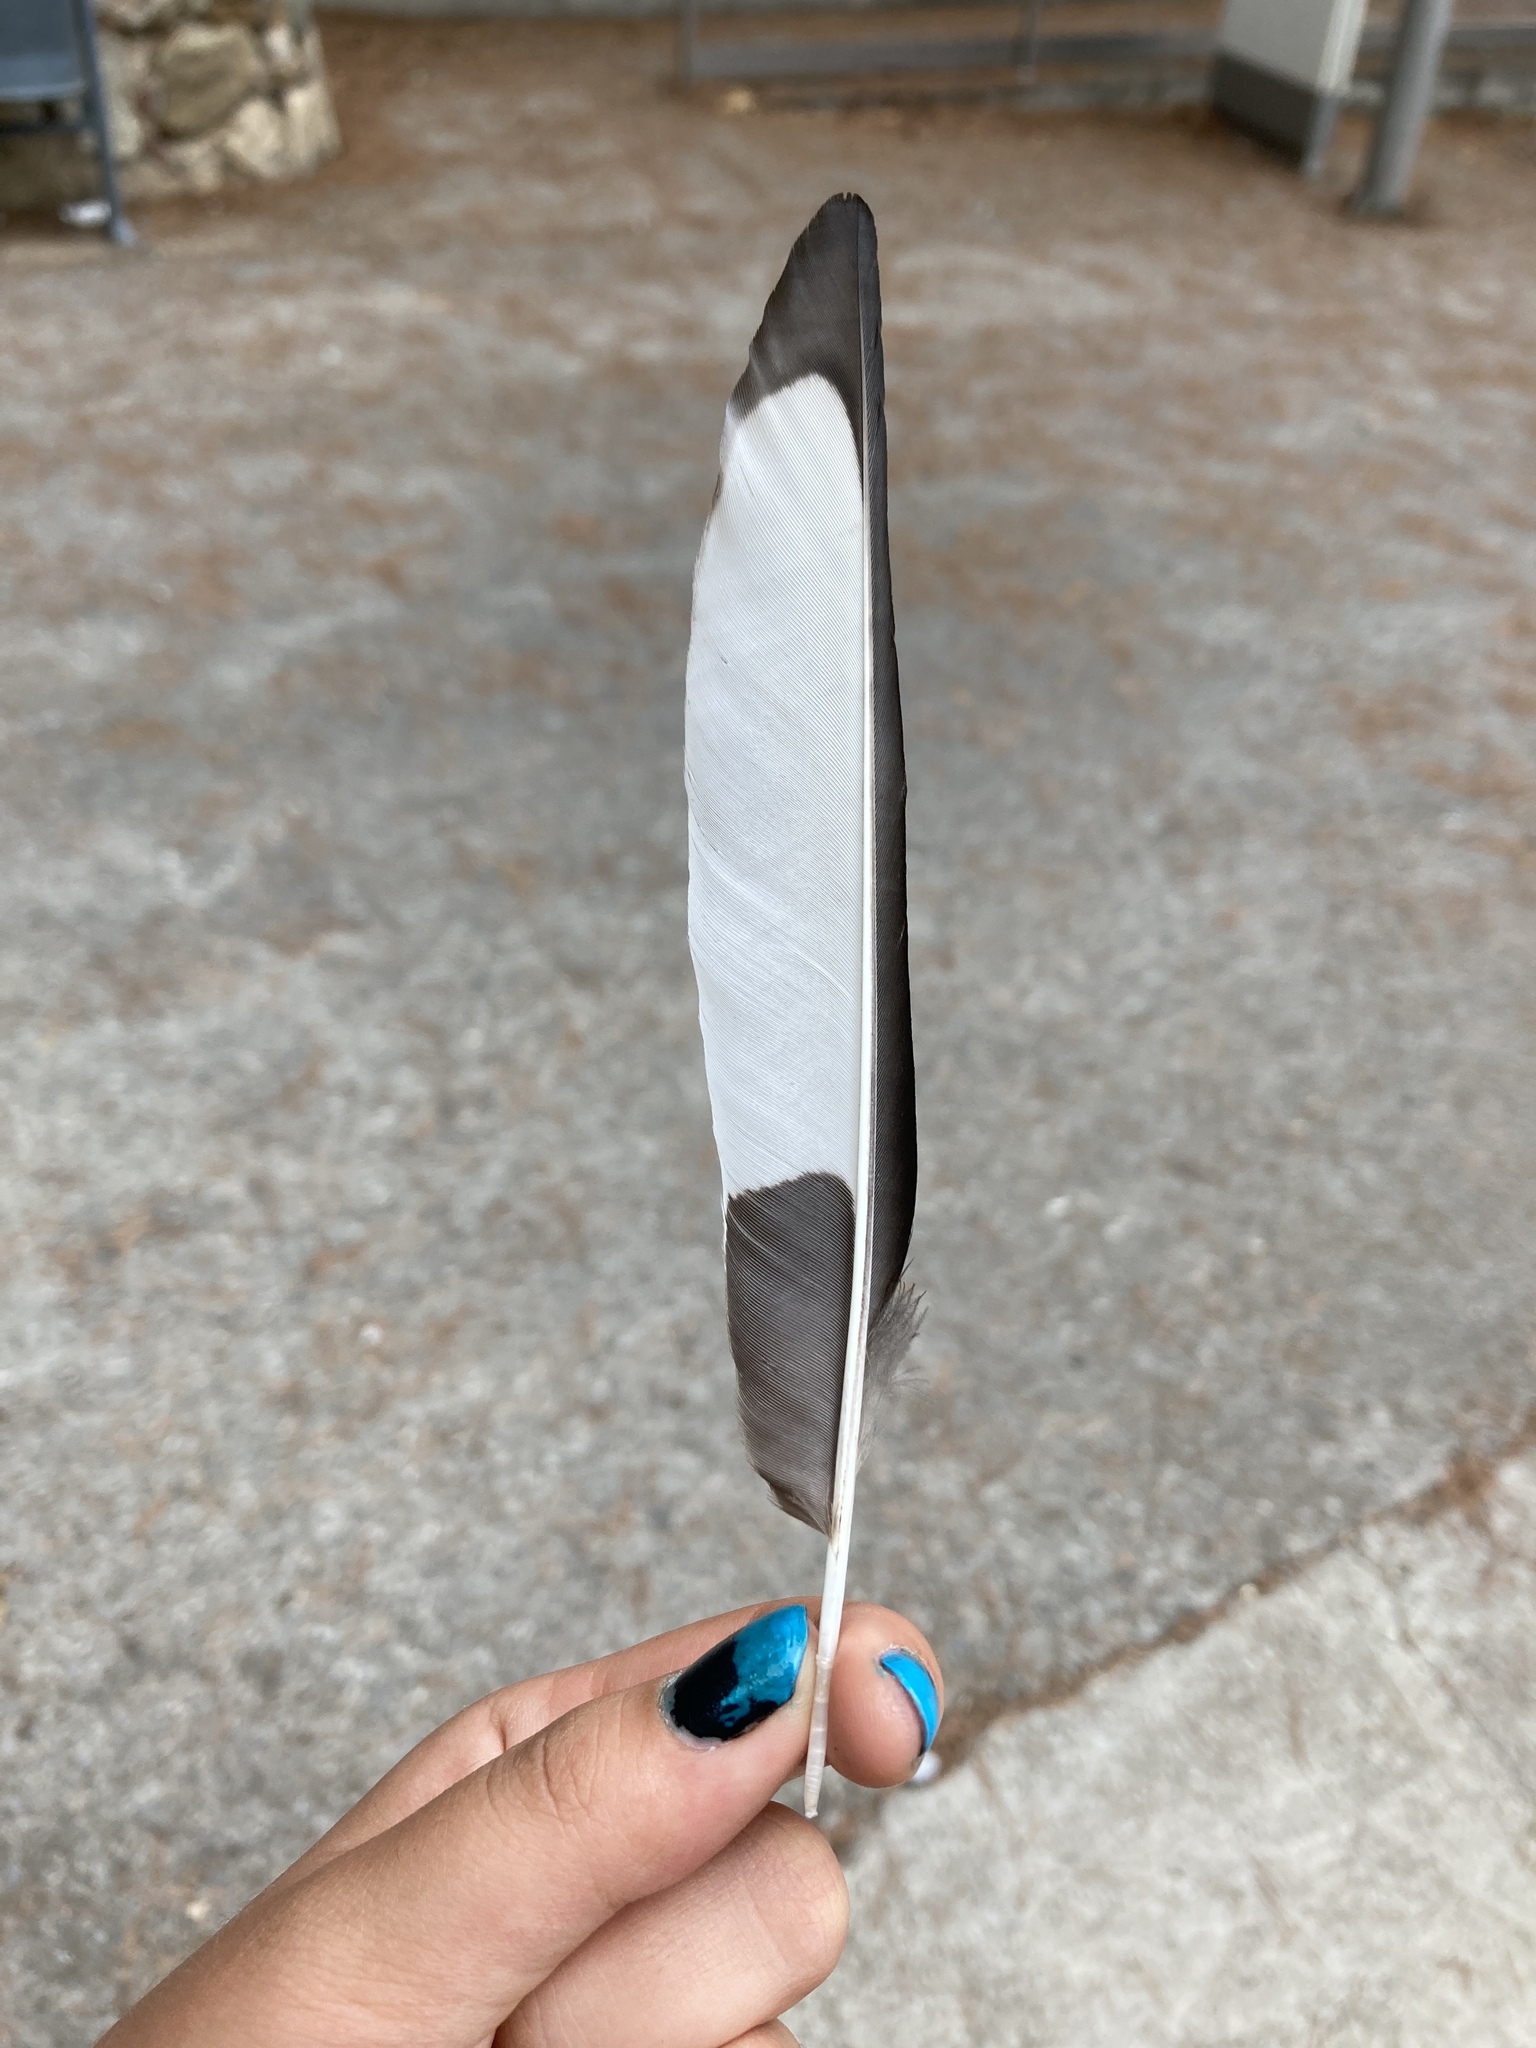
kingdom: Animalia
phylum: Chordata
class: Aves
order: Passeriformes
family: Corvidae
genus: Pica
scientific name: Pica pica
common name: Eurasian magpie
